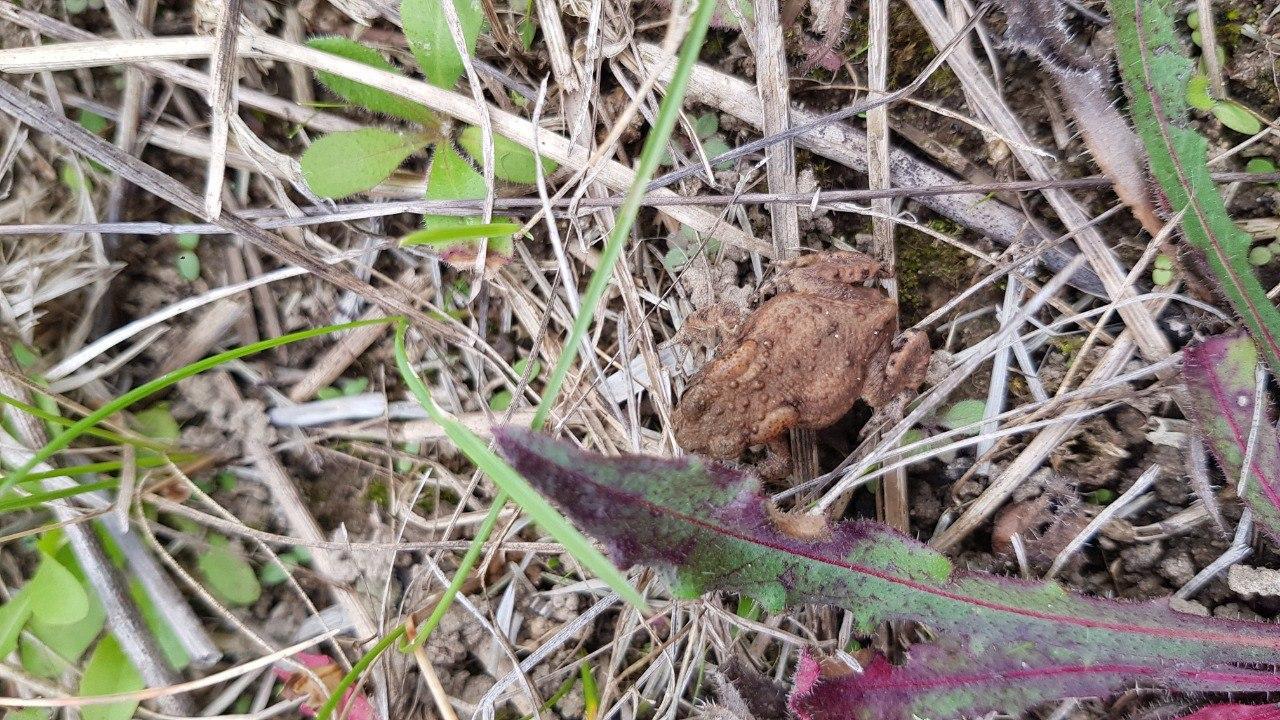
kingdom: Animalia
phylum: Chordata
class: Amphibia
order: Anura
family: Bufonidae
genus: Bufo
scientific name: Bufo bufo
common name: Common toad
